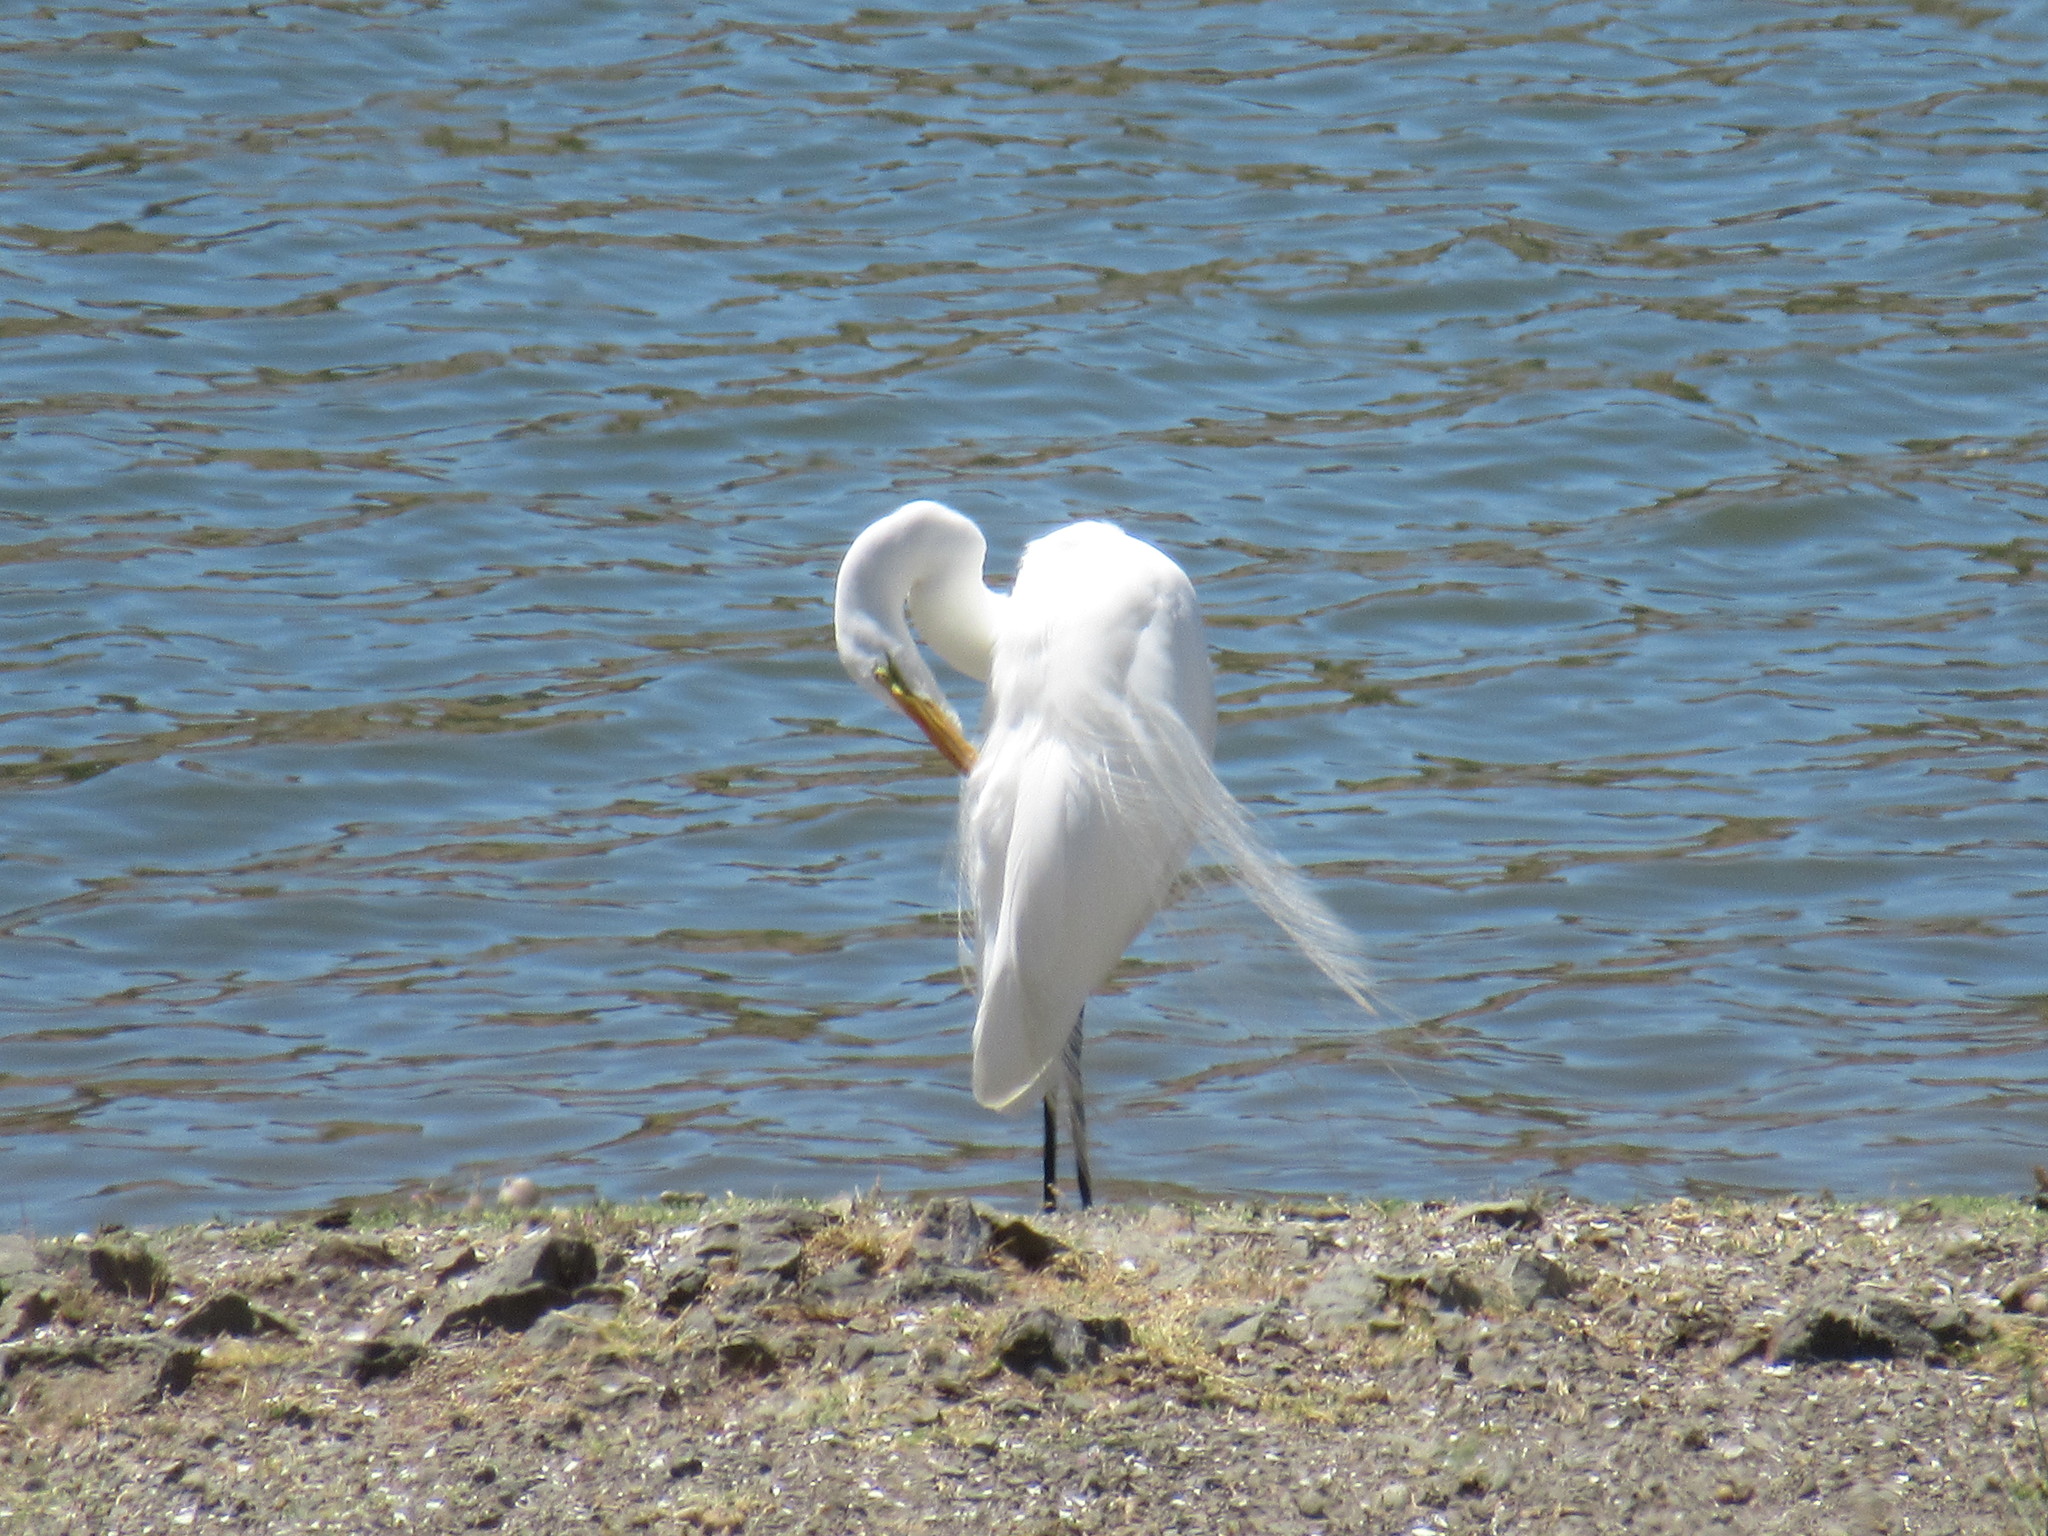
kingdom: Animalia
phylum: Chordata
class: Aves
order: Pelecaniformes
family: Ardeidae
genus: Ardea
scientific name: Ardea alba
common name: Great egret
